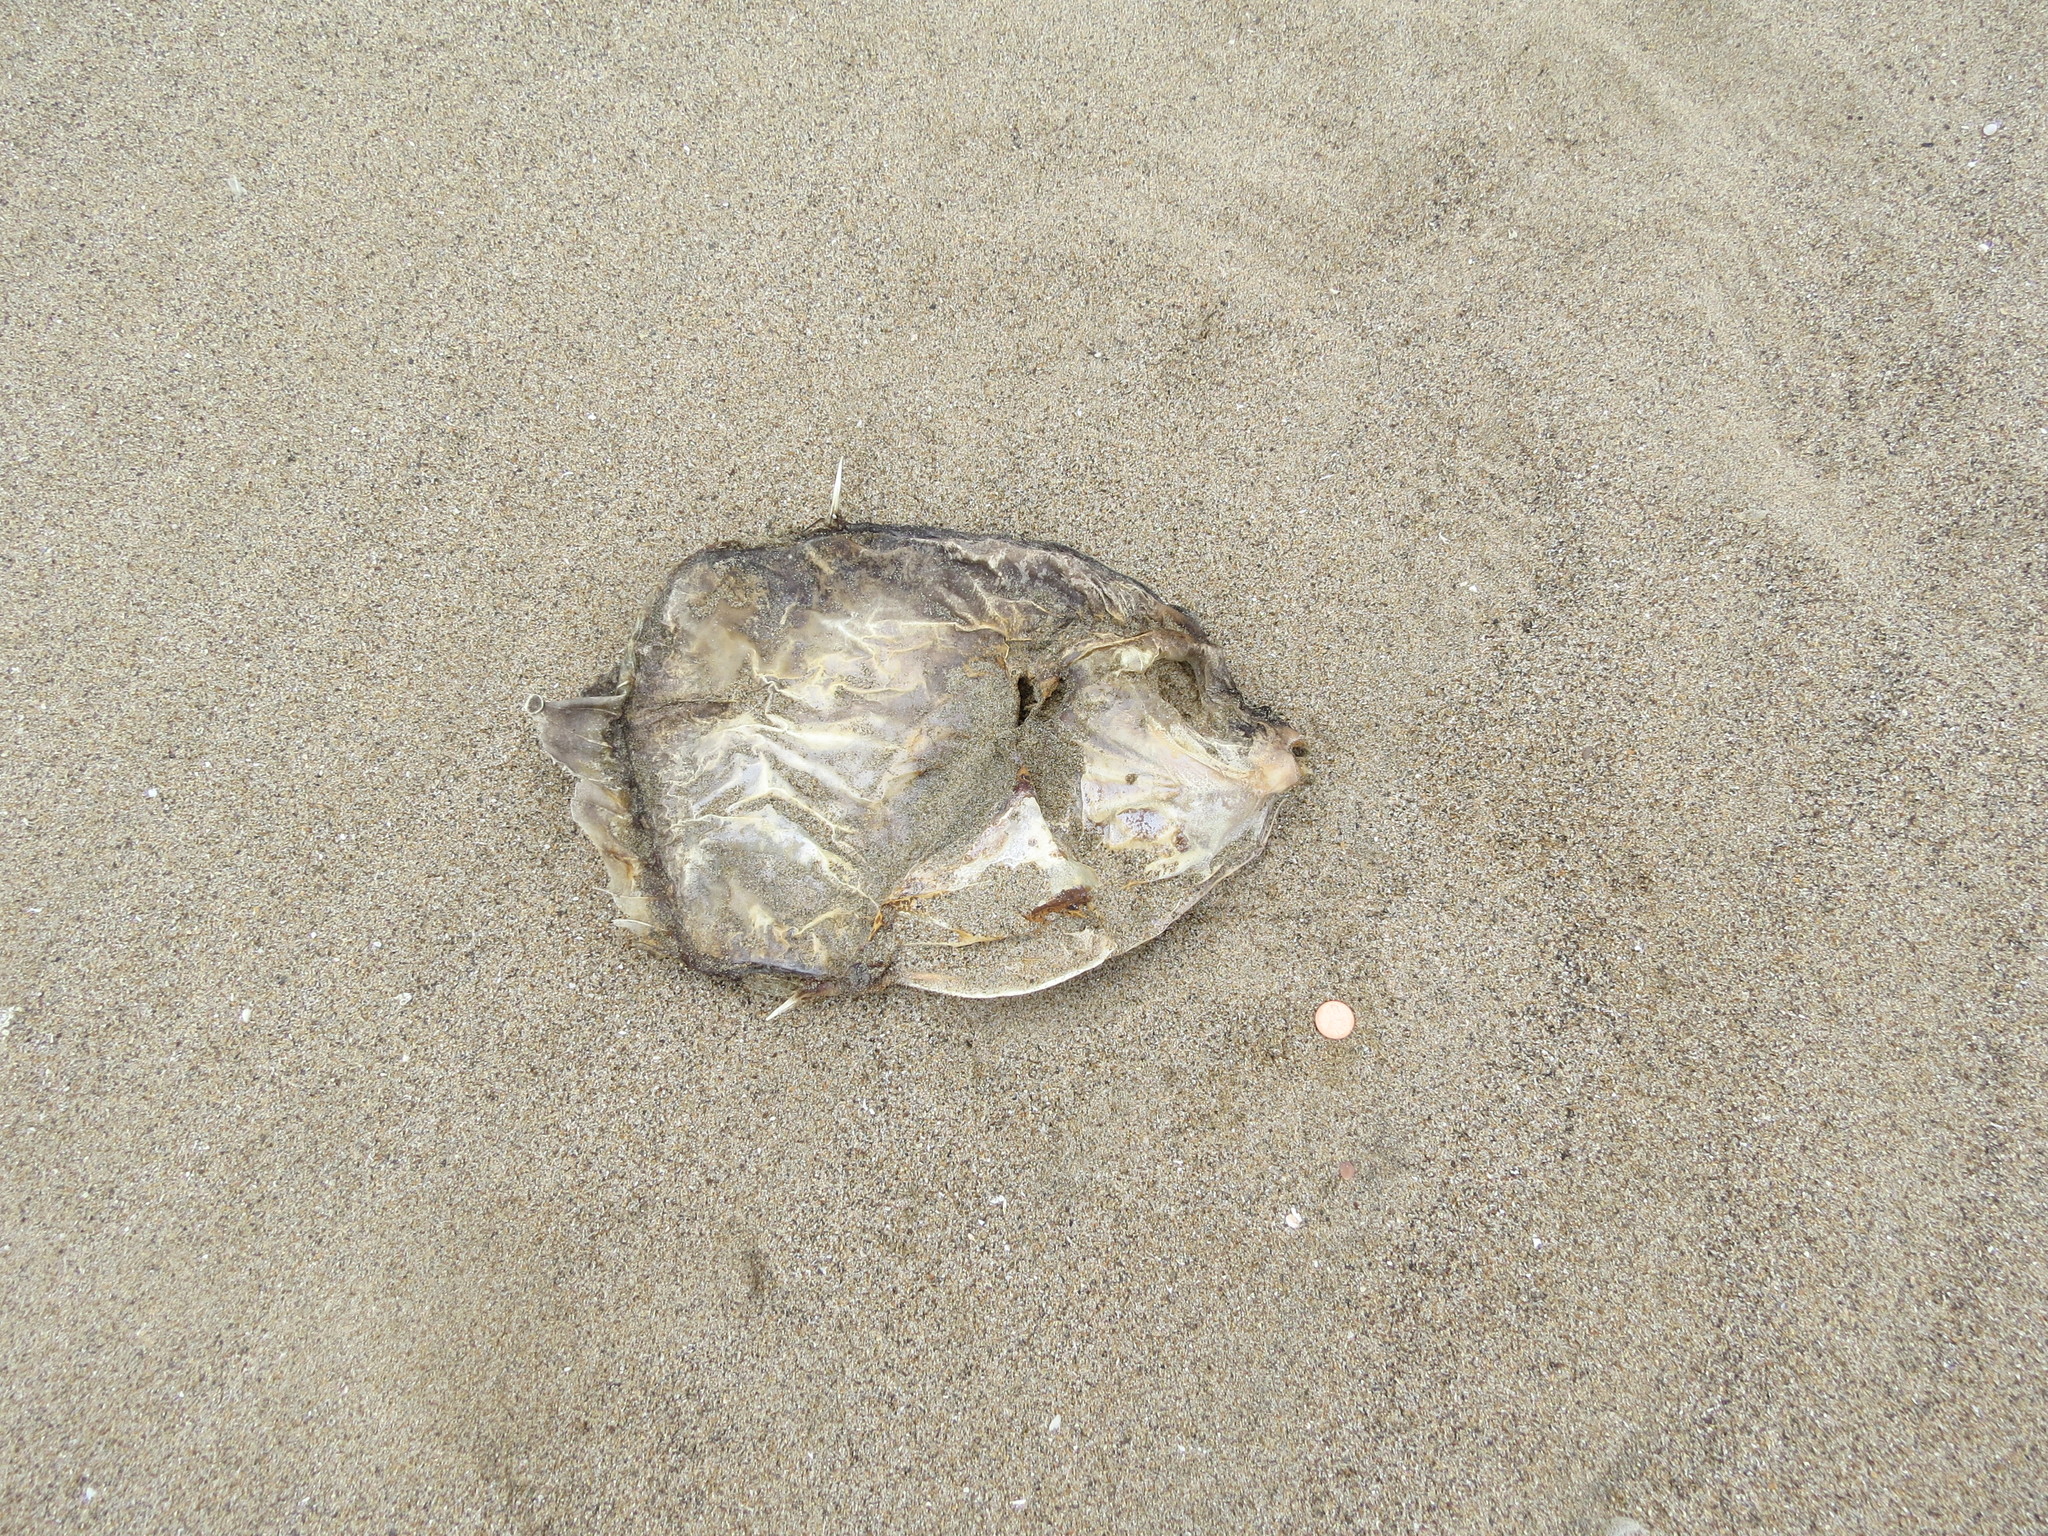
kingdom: Animalia
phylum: Chordata
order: Tetraodontiformes
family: Molidae
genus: Mola
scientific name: Mola mola
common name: Ocean sunfish
